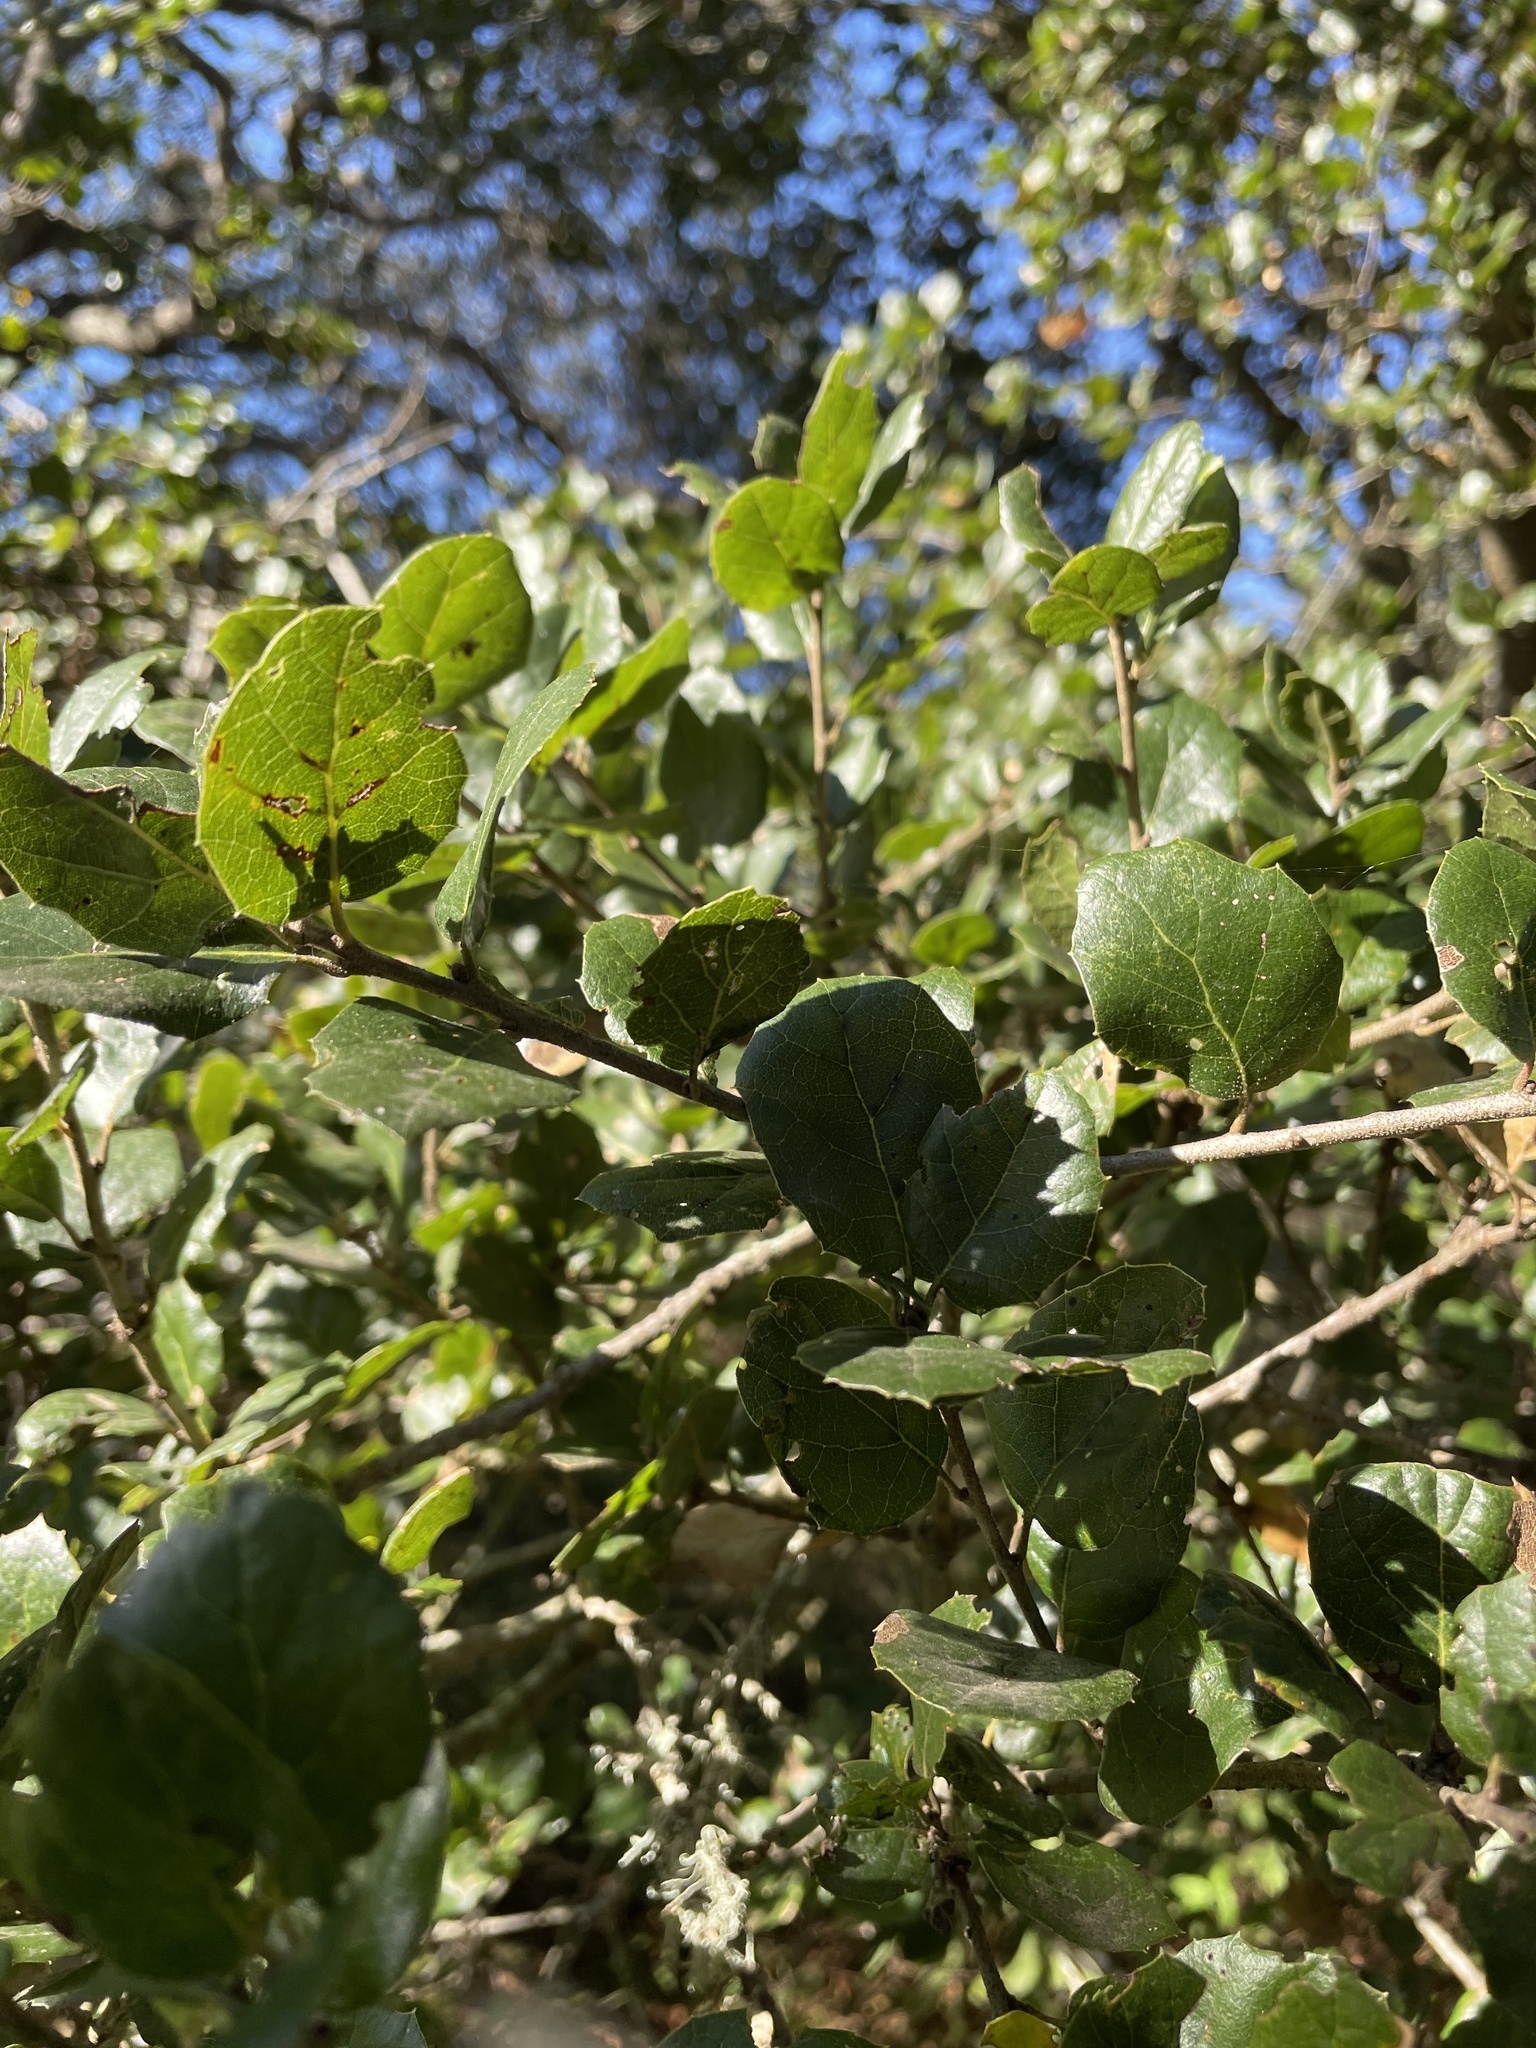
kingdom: Plantae
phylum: Tracheophyta
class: Magnoliopsida
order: Fagales
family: Fagaceae
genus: Quercus
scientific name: Quercus agrifolia
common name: California live oak
